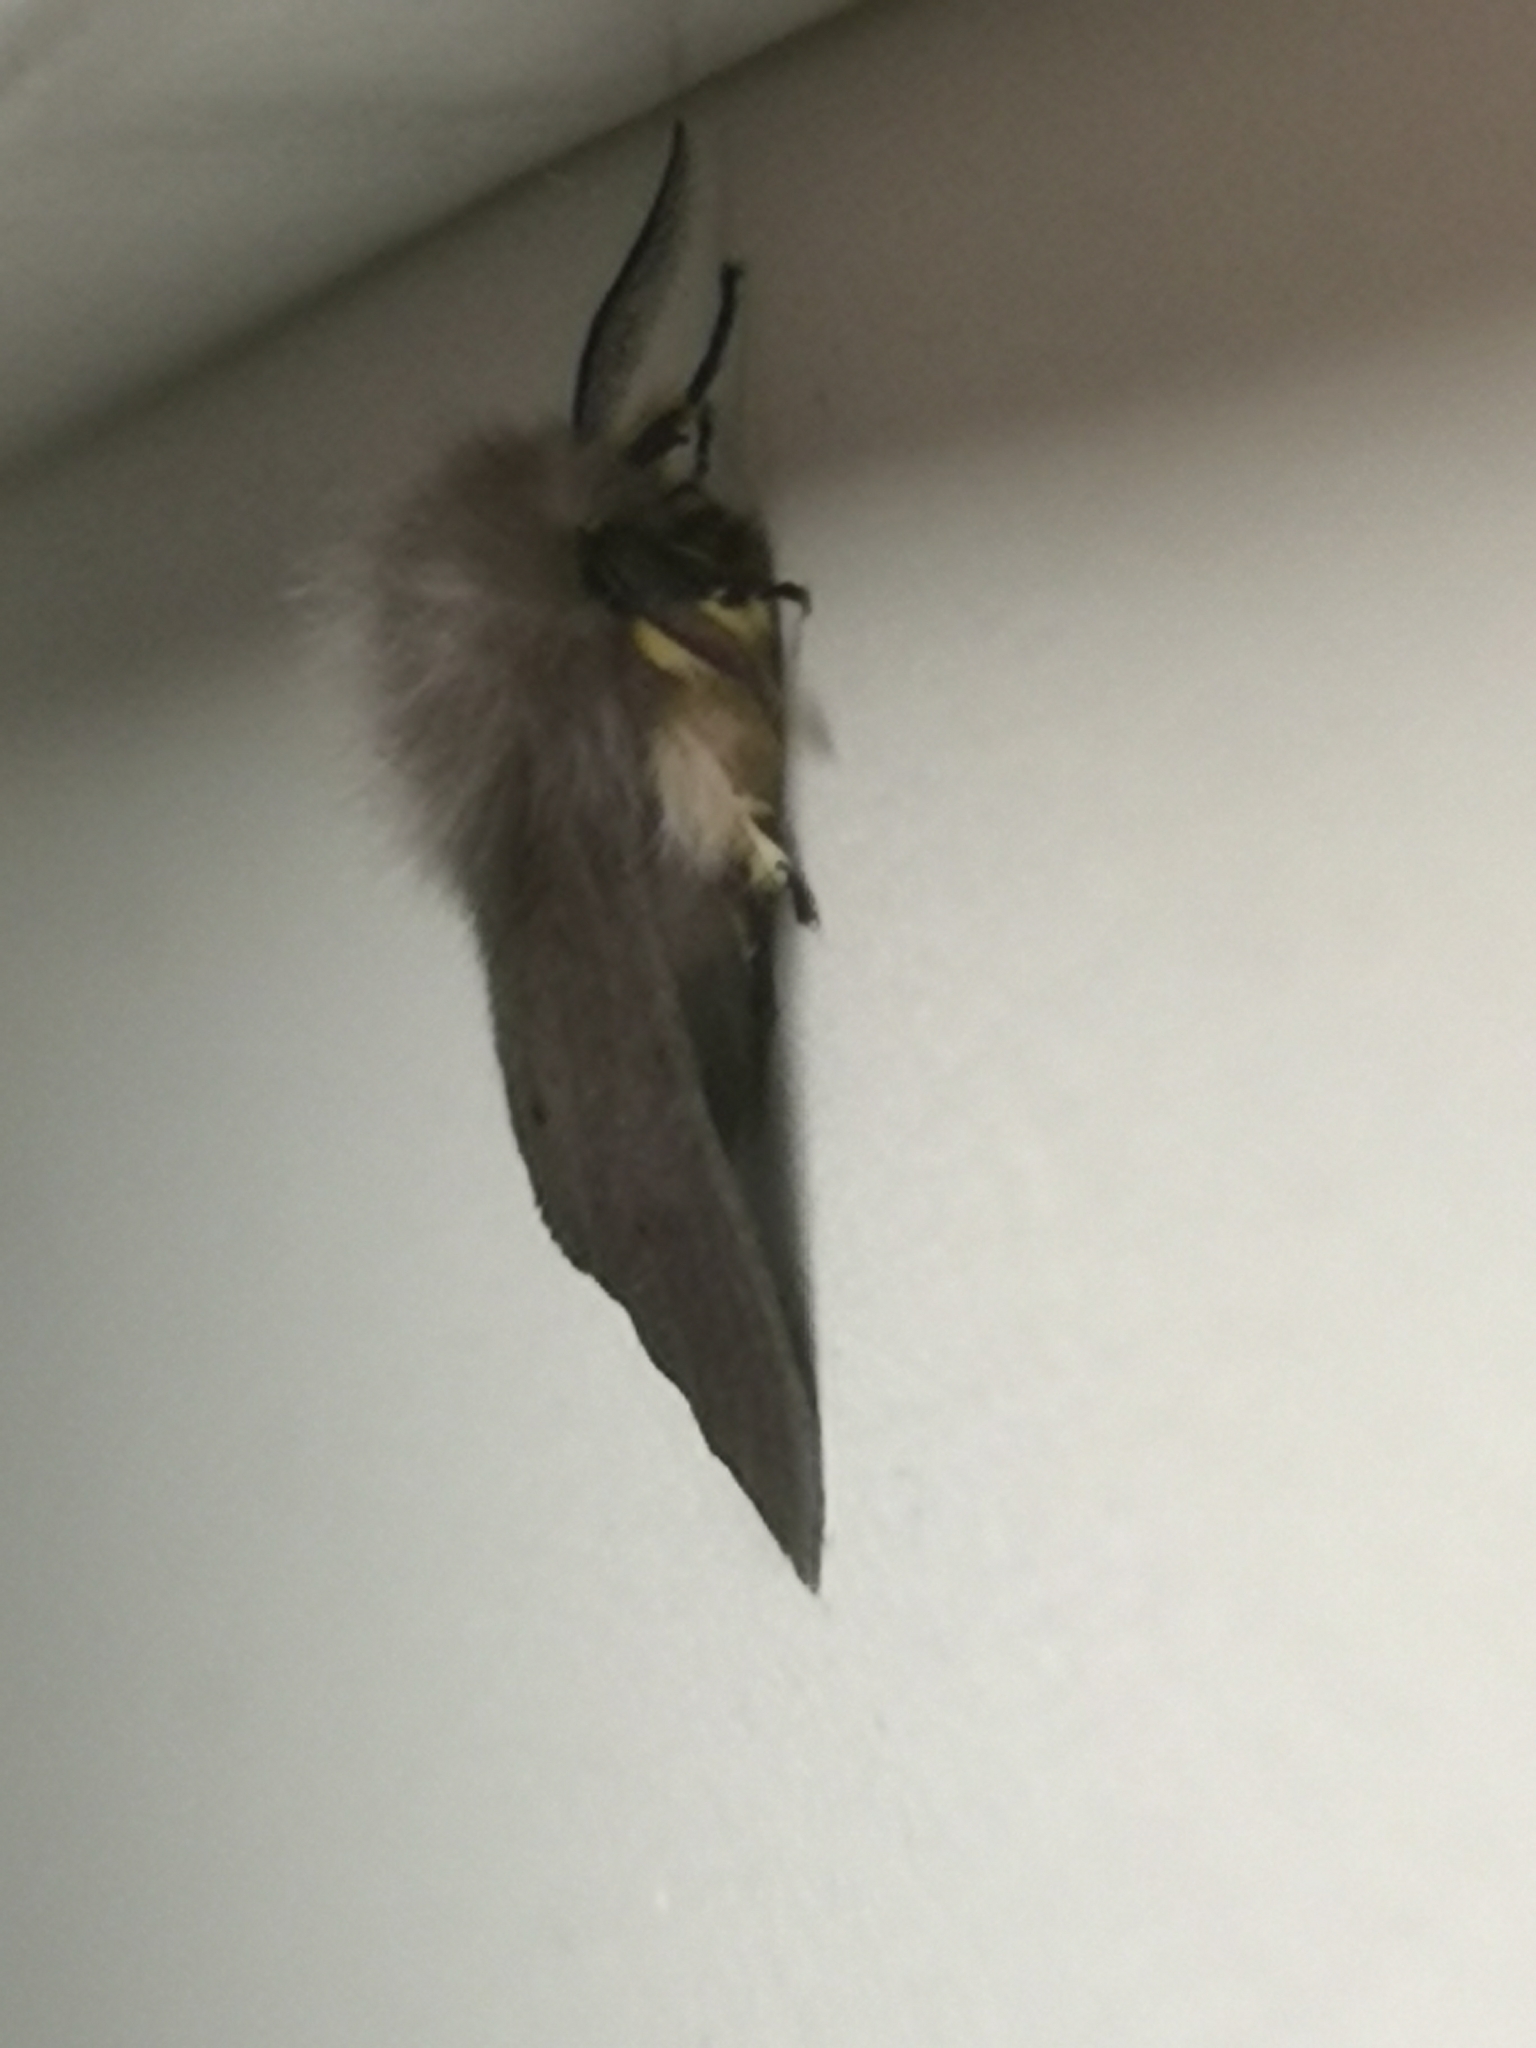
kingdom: Animalia
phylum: Arthropoda
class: Insecta
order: Lepidoptera
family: Erebidae
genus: Diaphora
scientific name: Diaphora mendica
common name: Muslin moth
